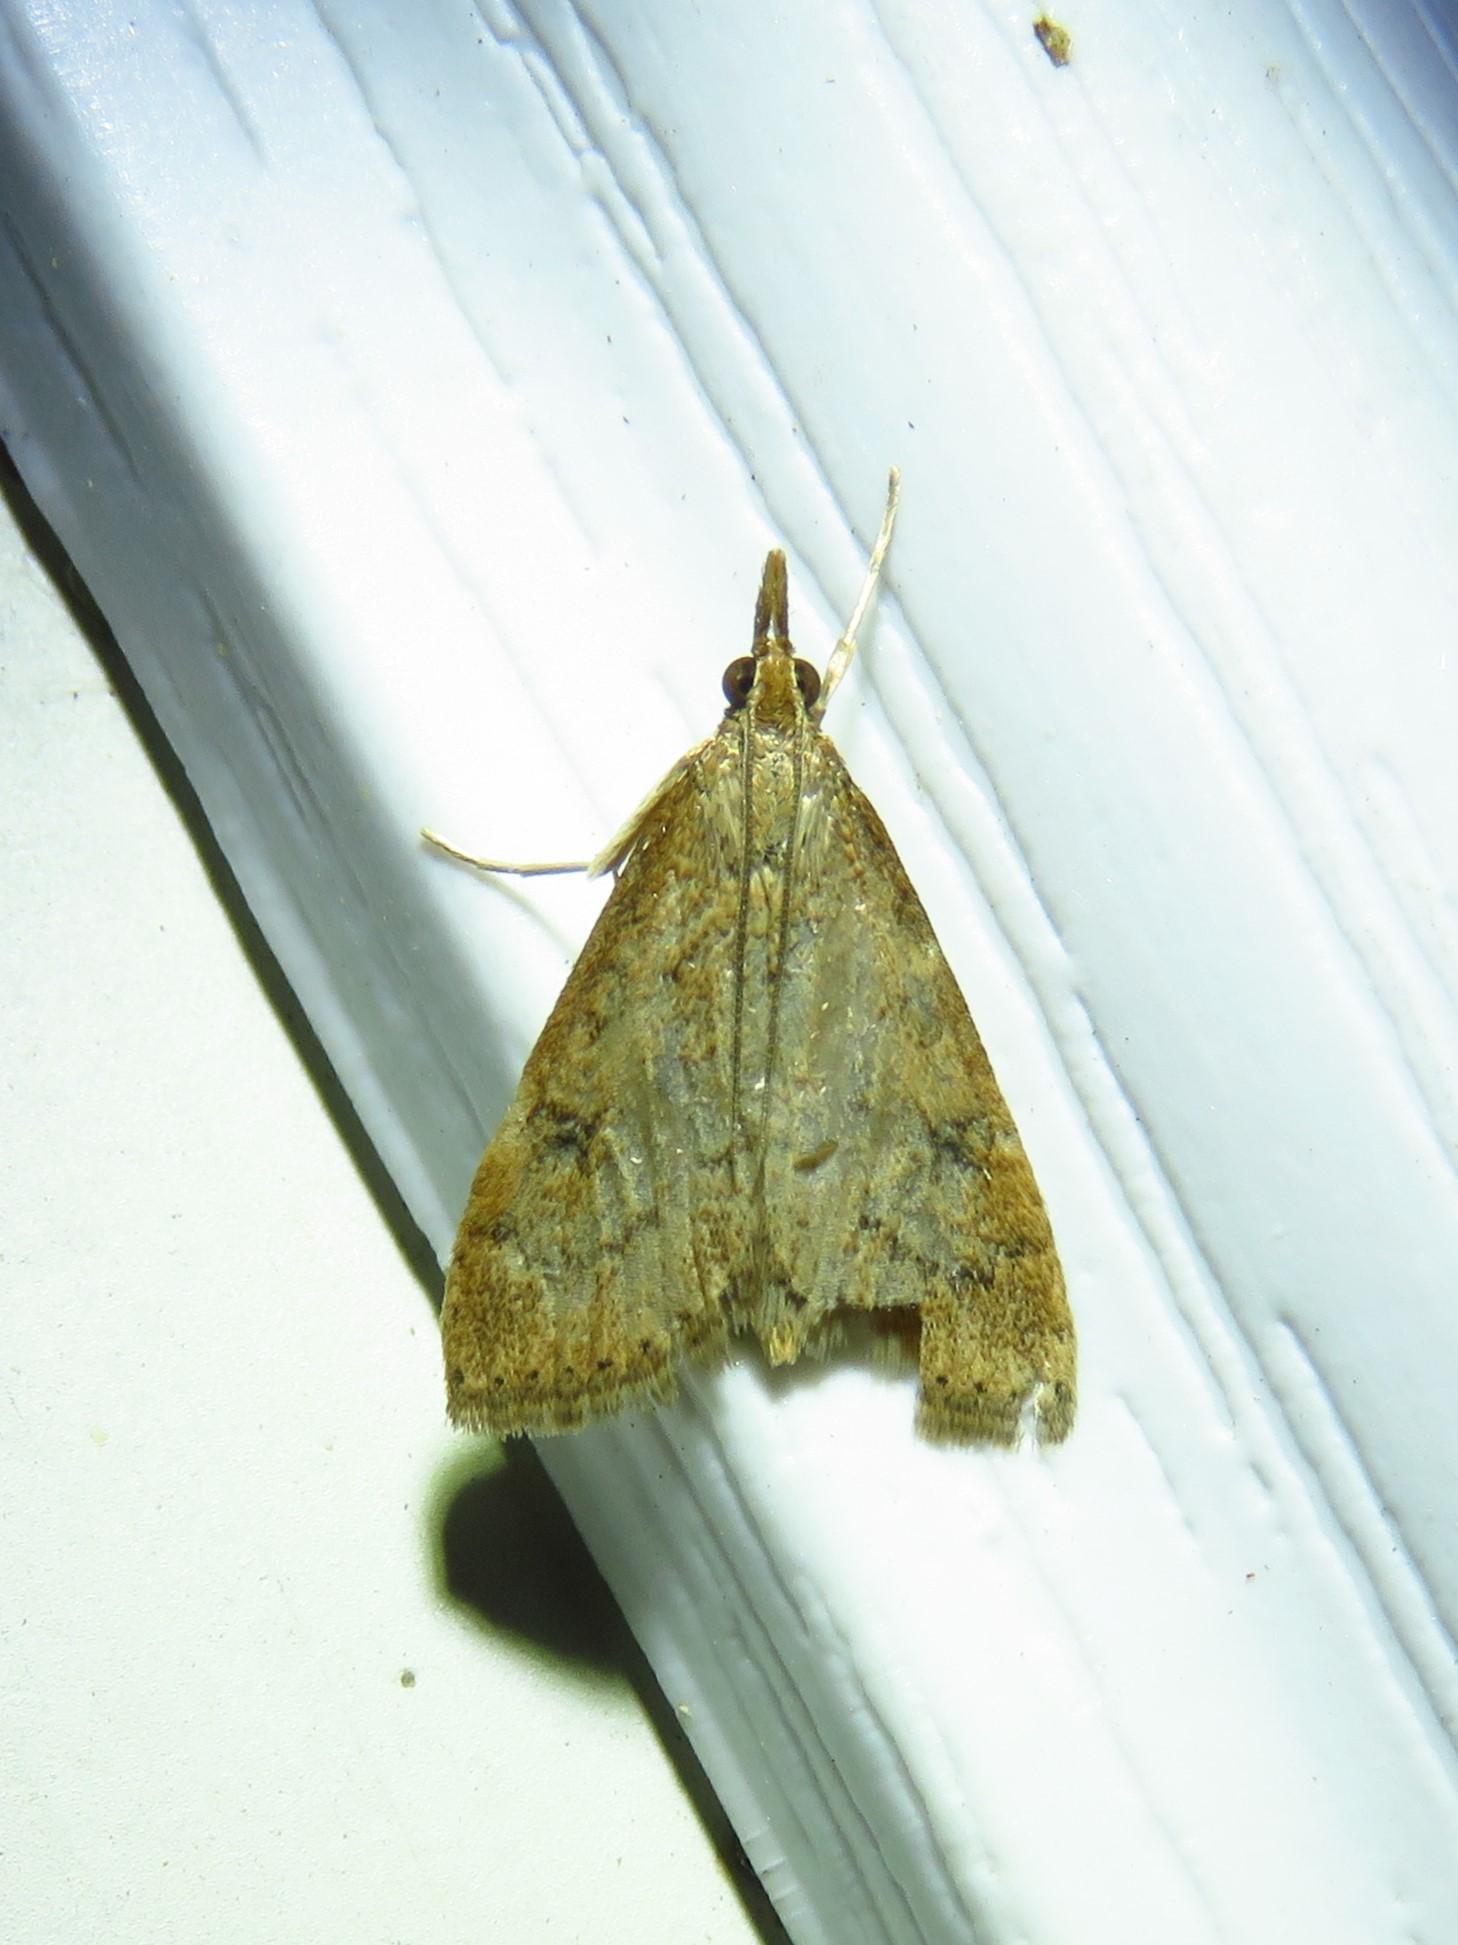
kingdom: Animalia
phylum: Arthropoda
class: Insecta
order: Lepidoptera
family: Crambidae
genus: Udea
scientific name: Udea rubigalis
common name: Celery leaftier moth
